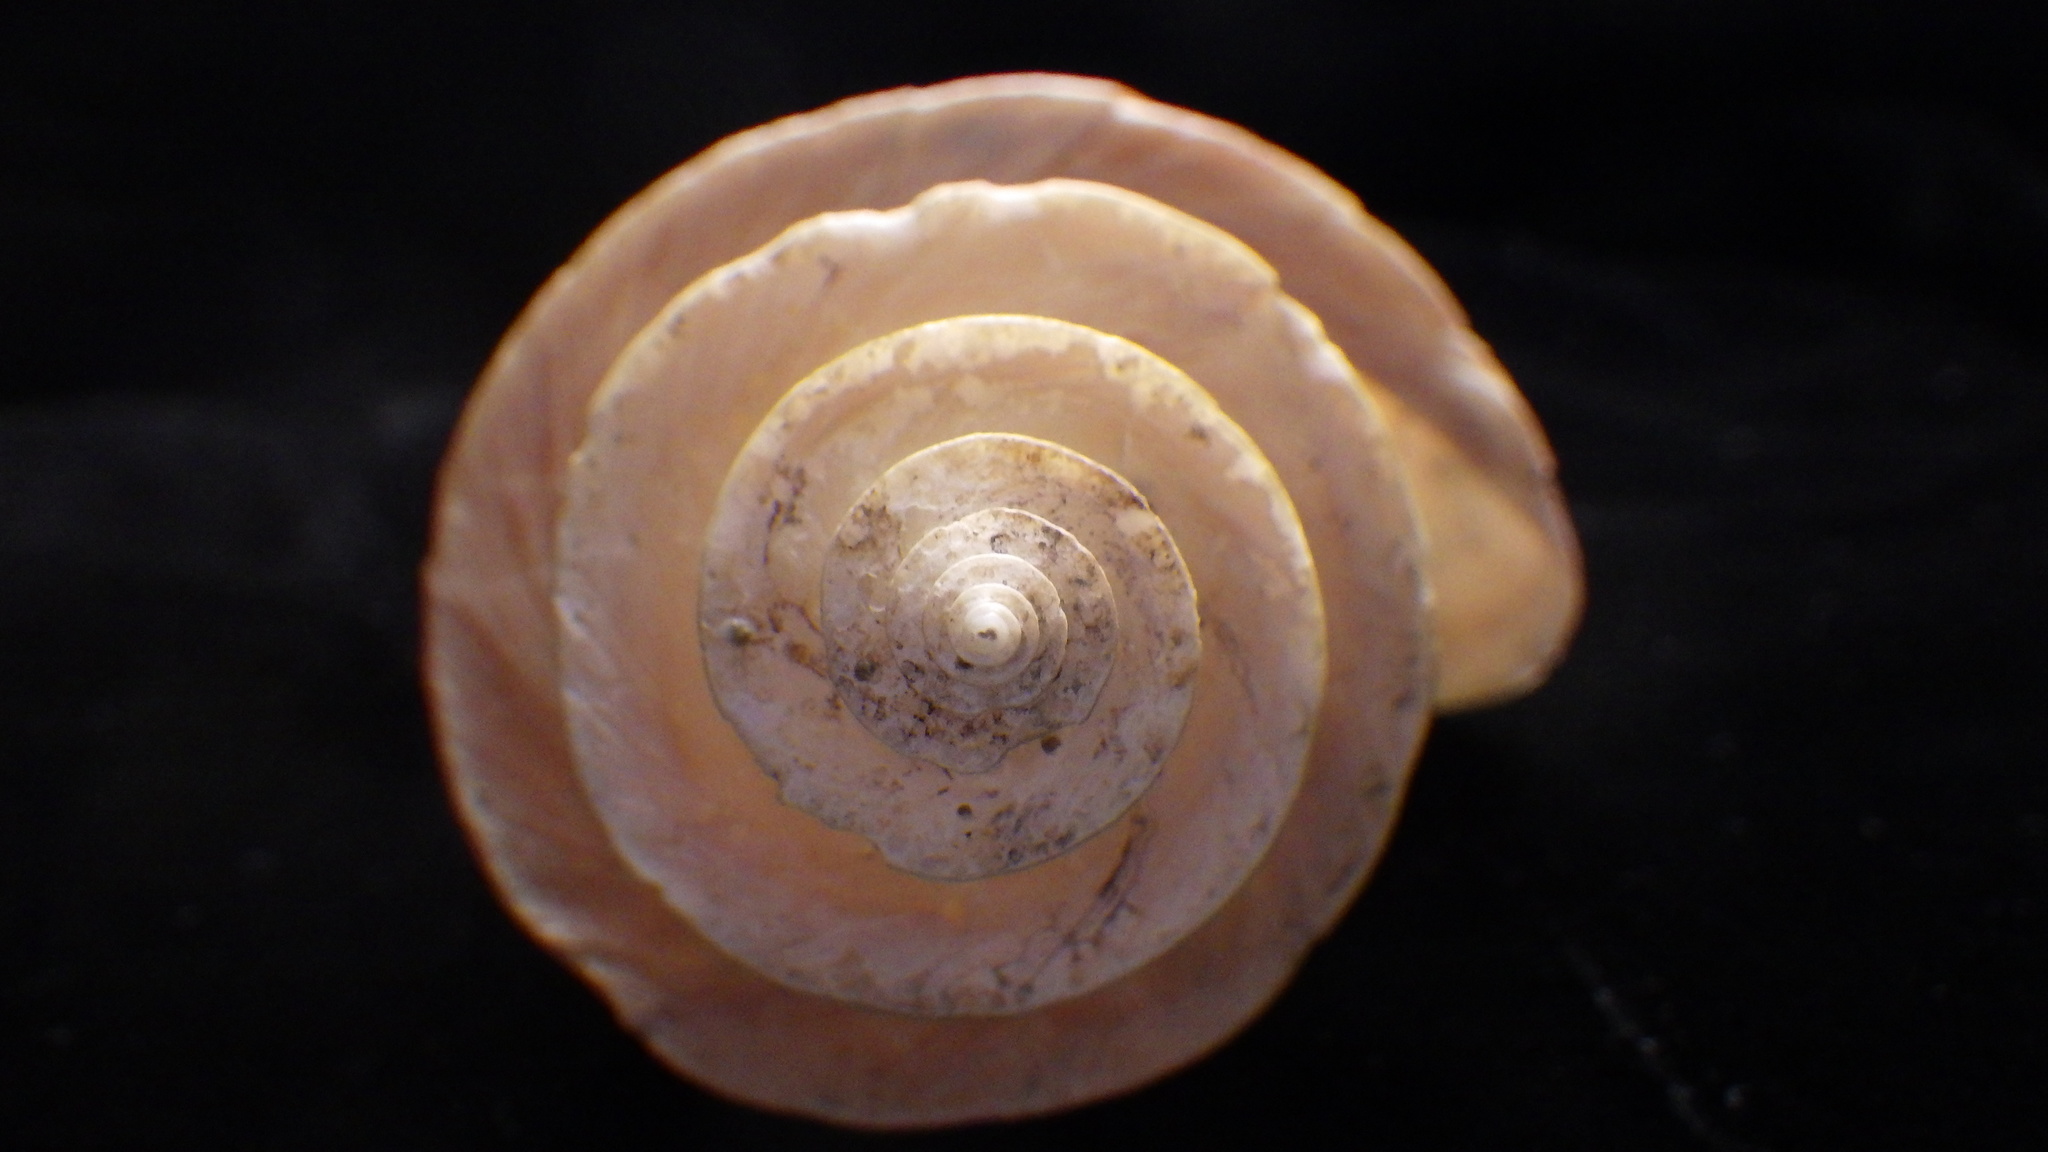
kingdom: Animalia
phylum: Mollusca
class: Gastropoda
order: Neogastropoda
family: Raphitomidae
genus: Thatcheria
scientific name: Thatcheria mirabilis
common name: Japanese wonder snail
